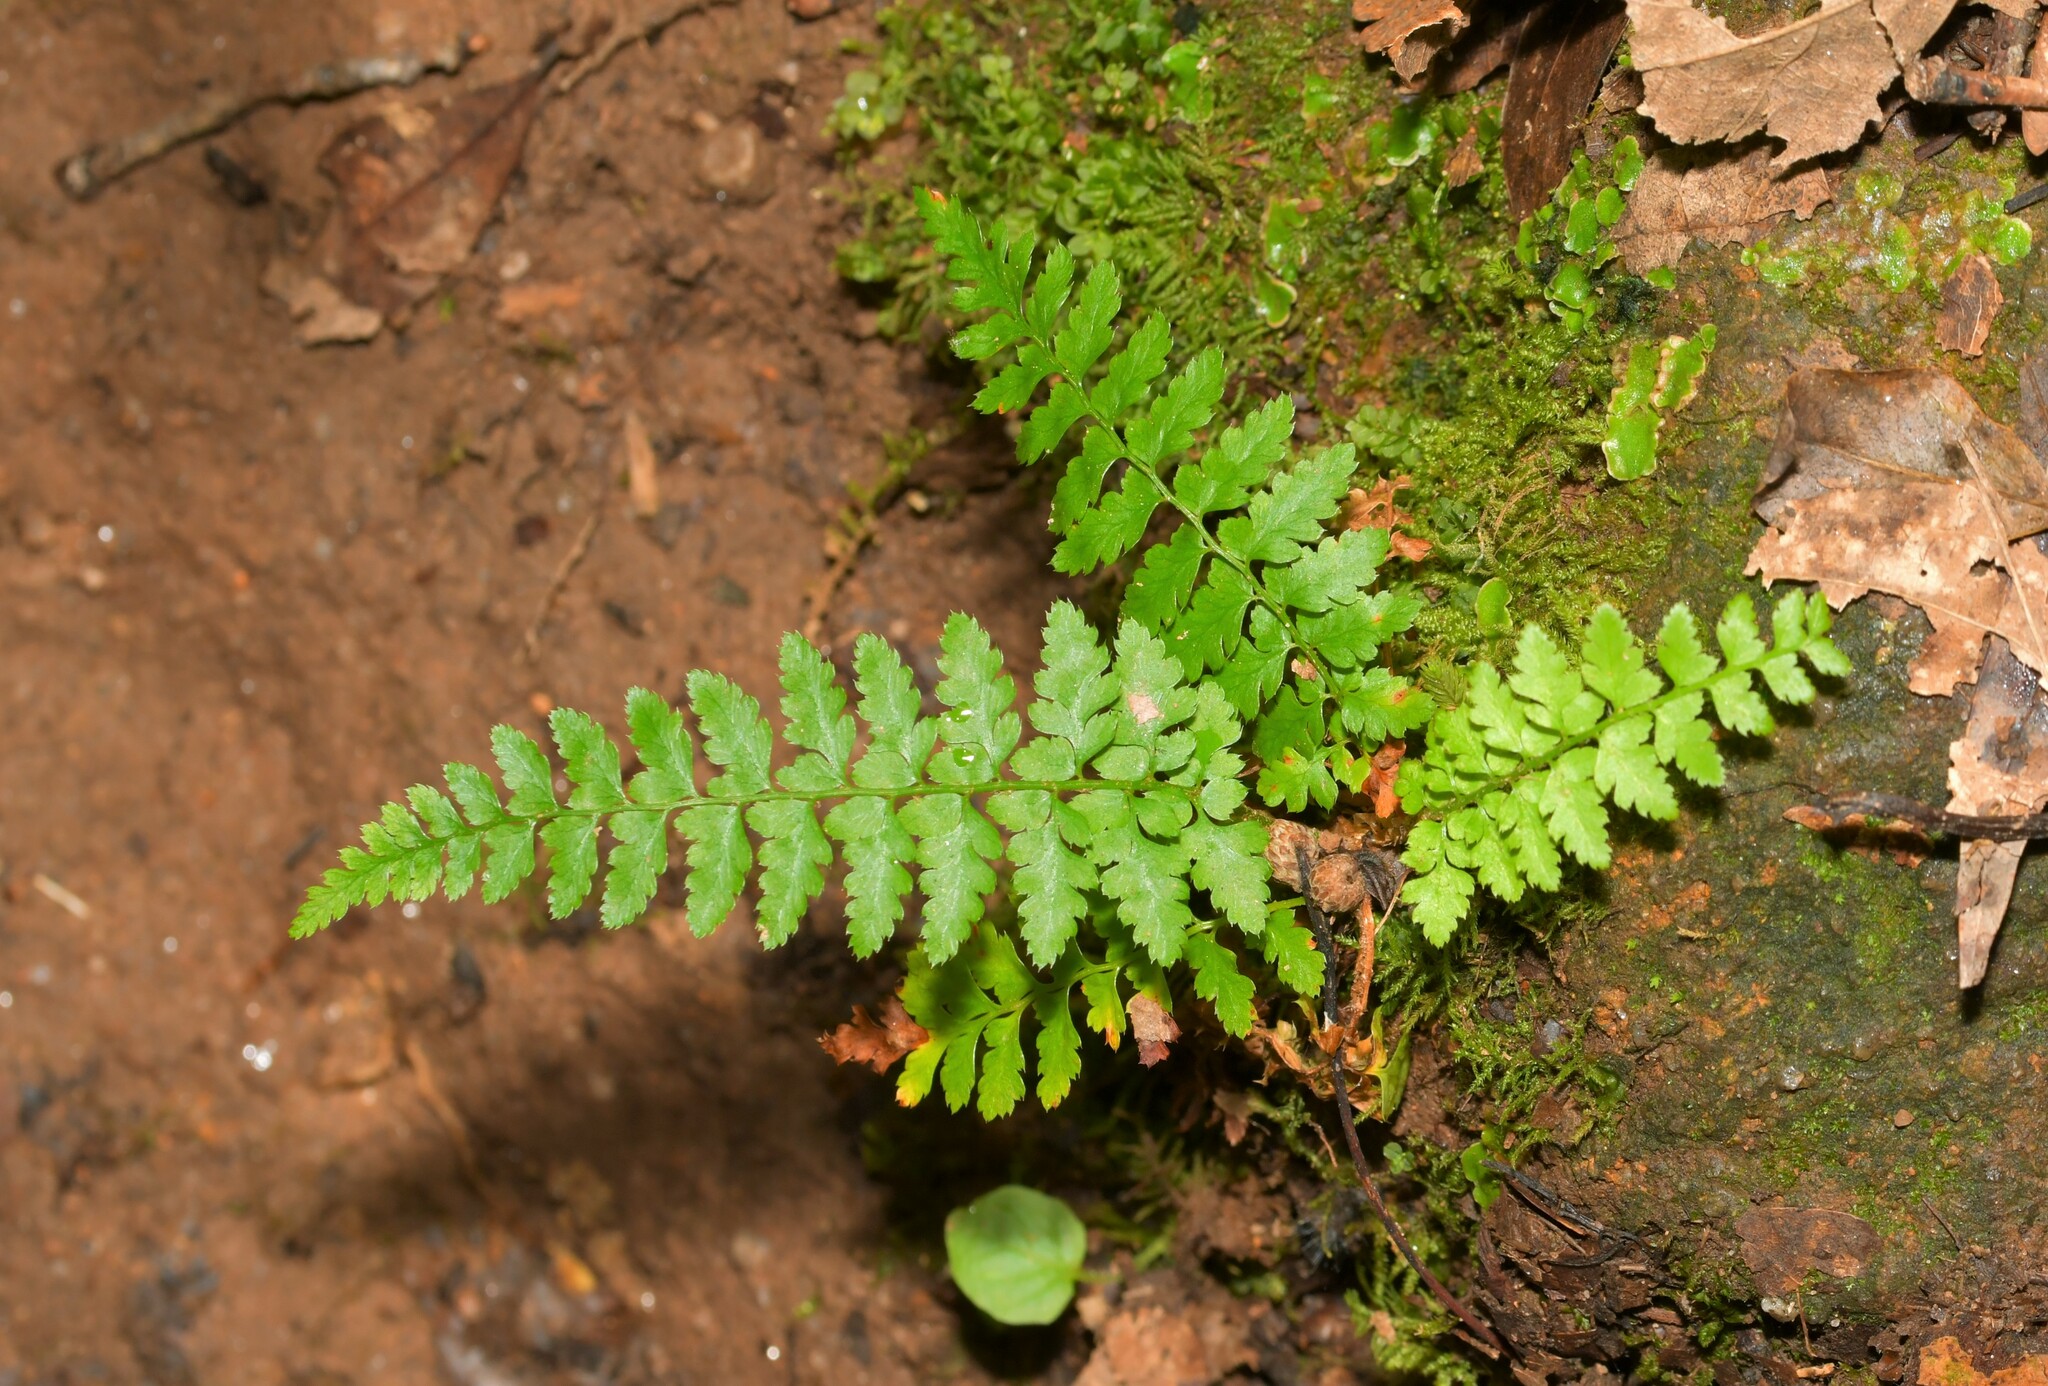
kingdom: Plantae
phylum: Tracheophyta
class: Polypodiopsida
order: Polypodiales
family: Dryopteridaceae
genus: Polystichum
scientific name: Polystichum setiferum
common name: Soft shield-fern
